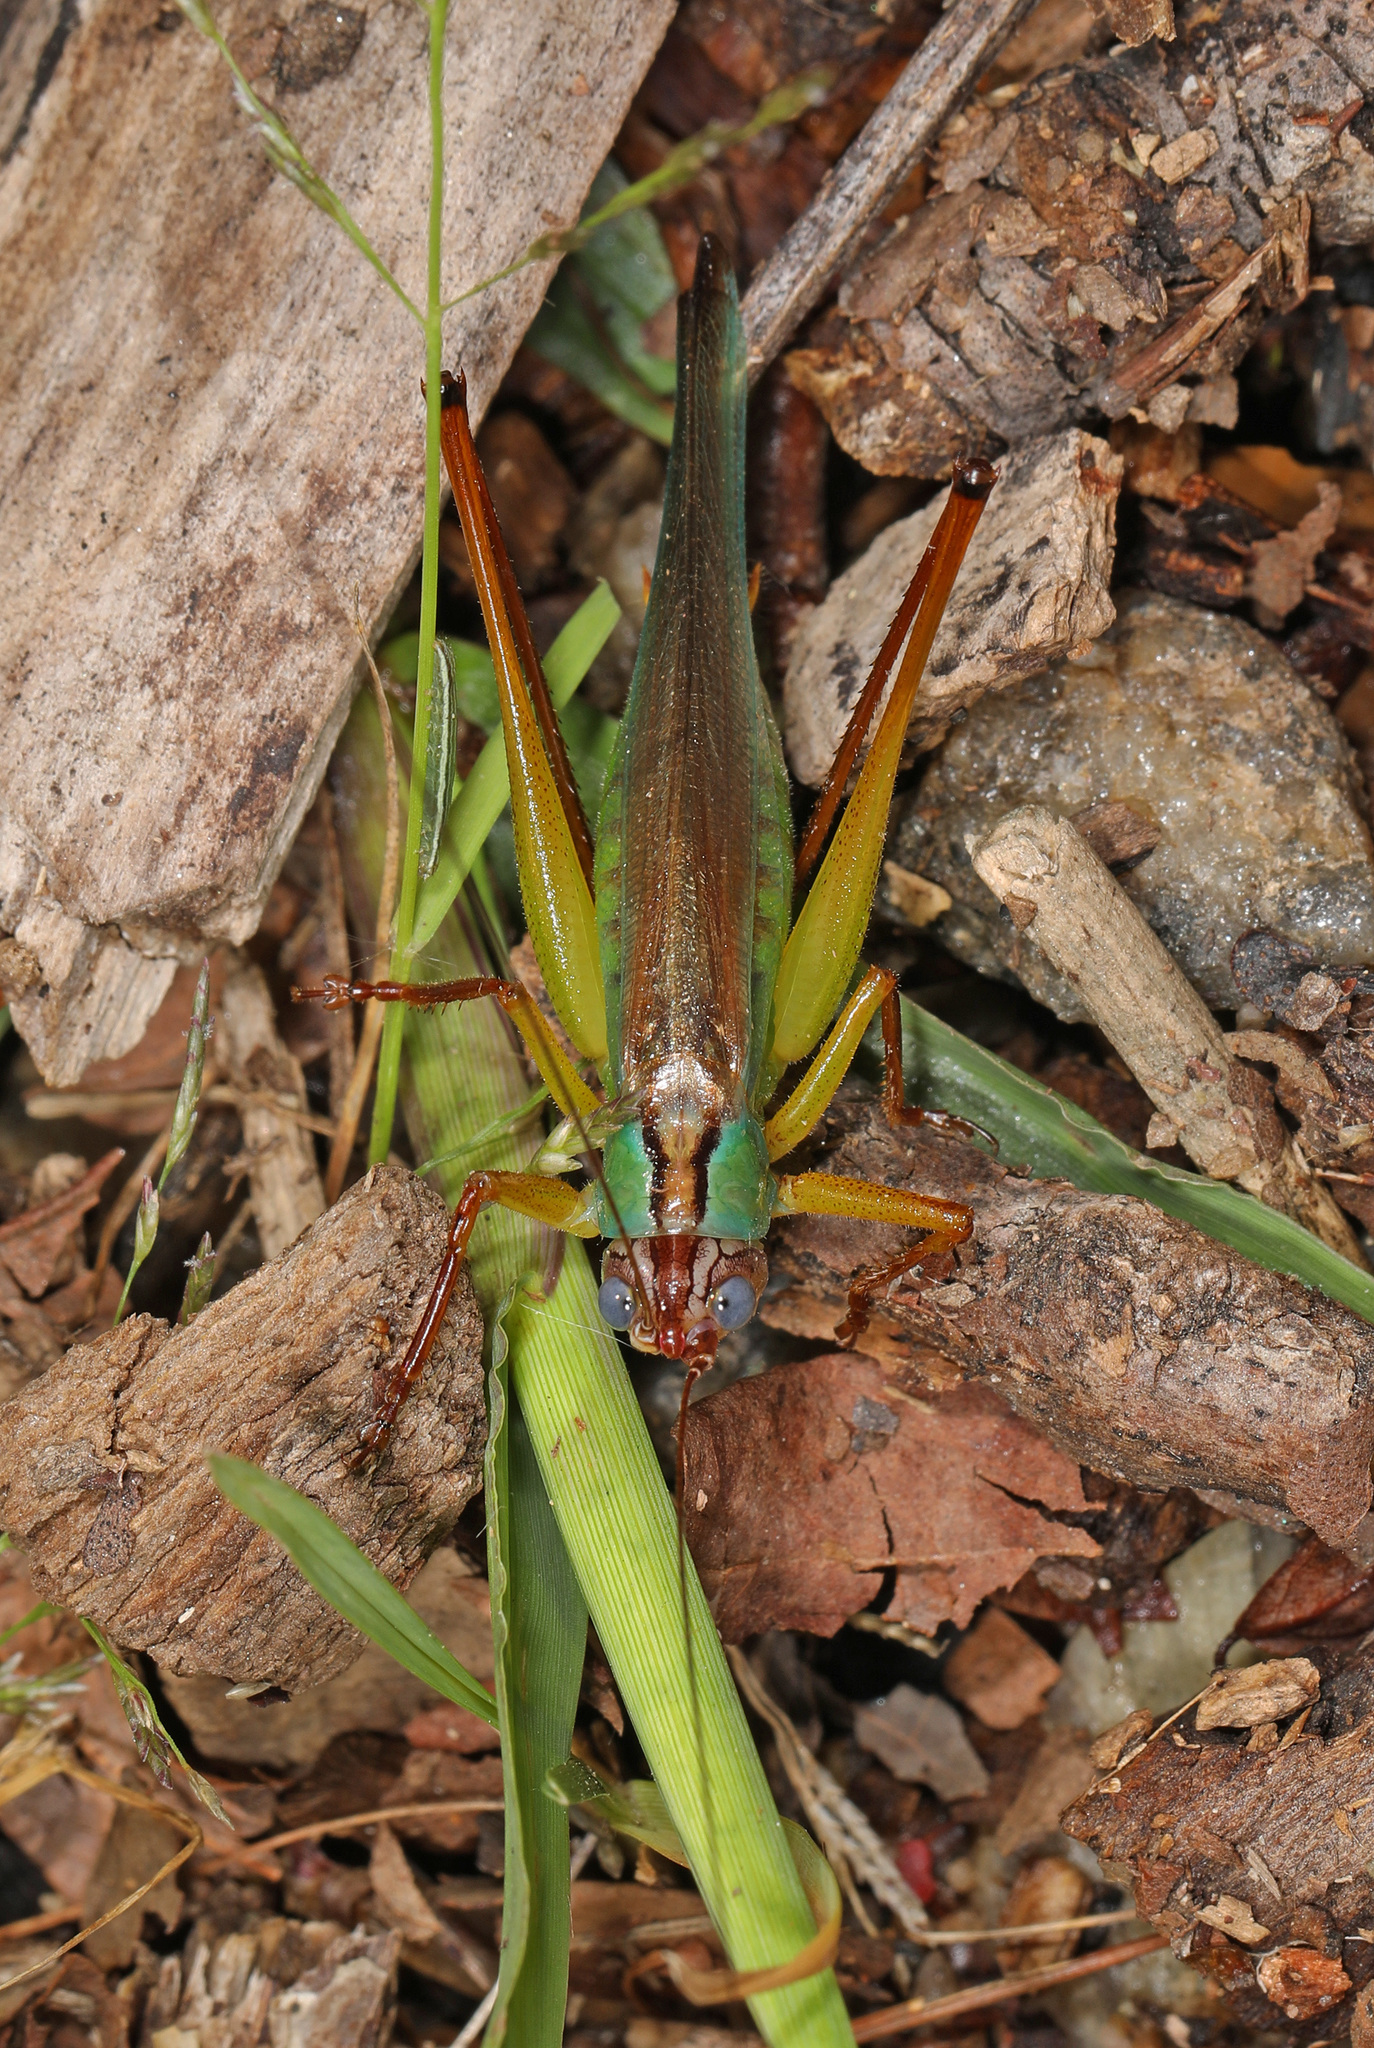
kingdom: Animalia
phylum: Arthropoda
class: Insecta
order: Orthoptera
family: Tettigoniidae
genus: Orchelimum
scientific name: Orchelimum pulchellum
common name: Handsome meadow katydid
